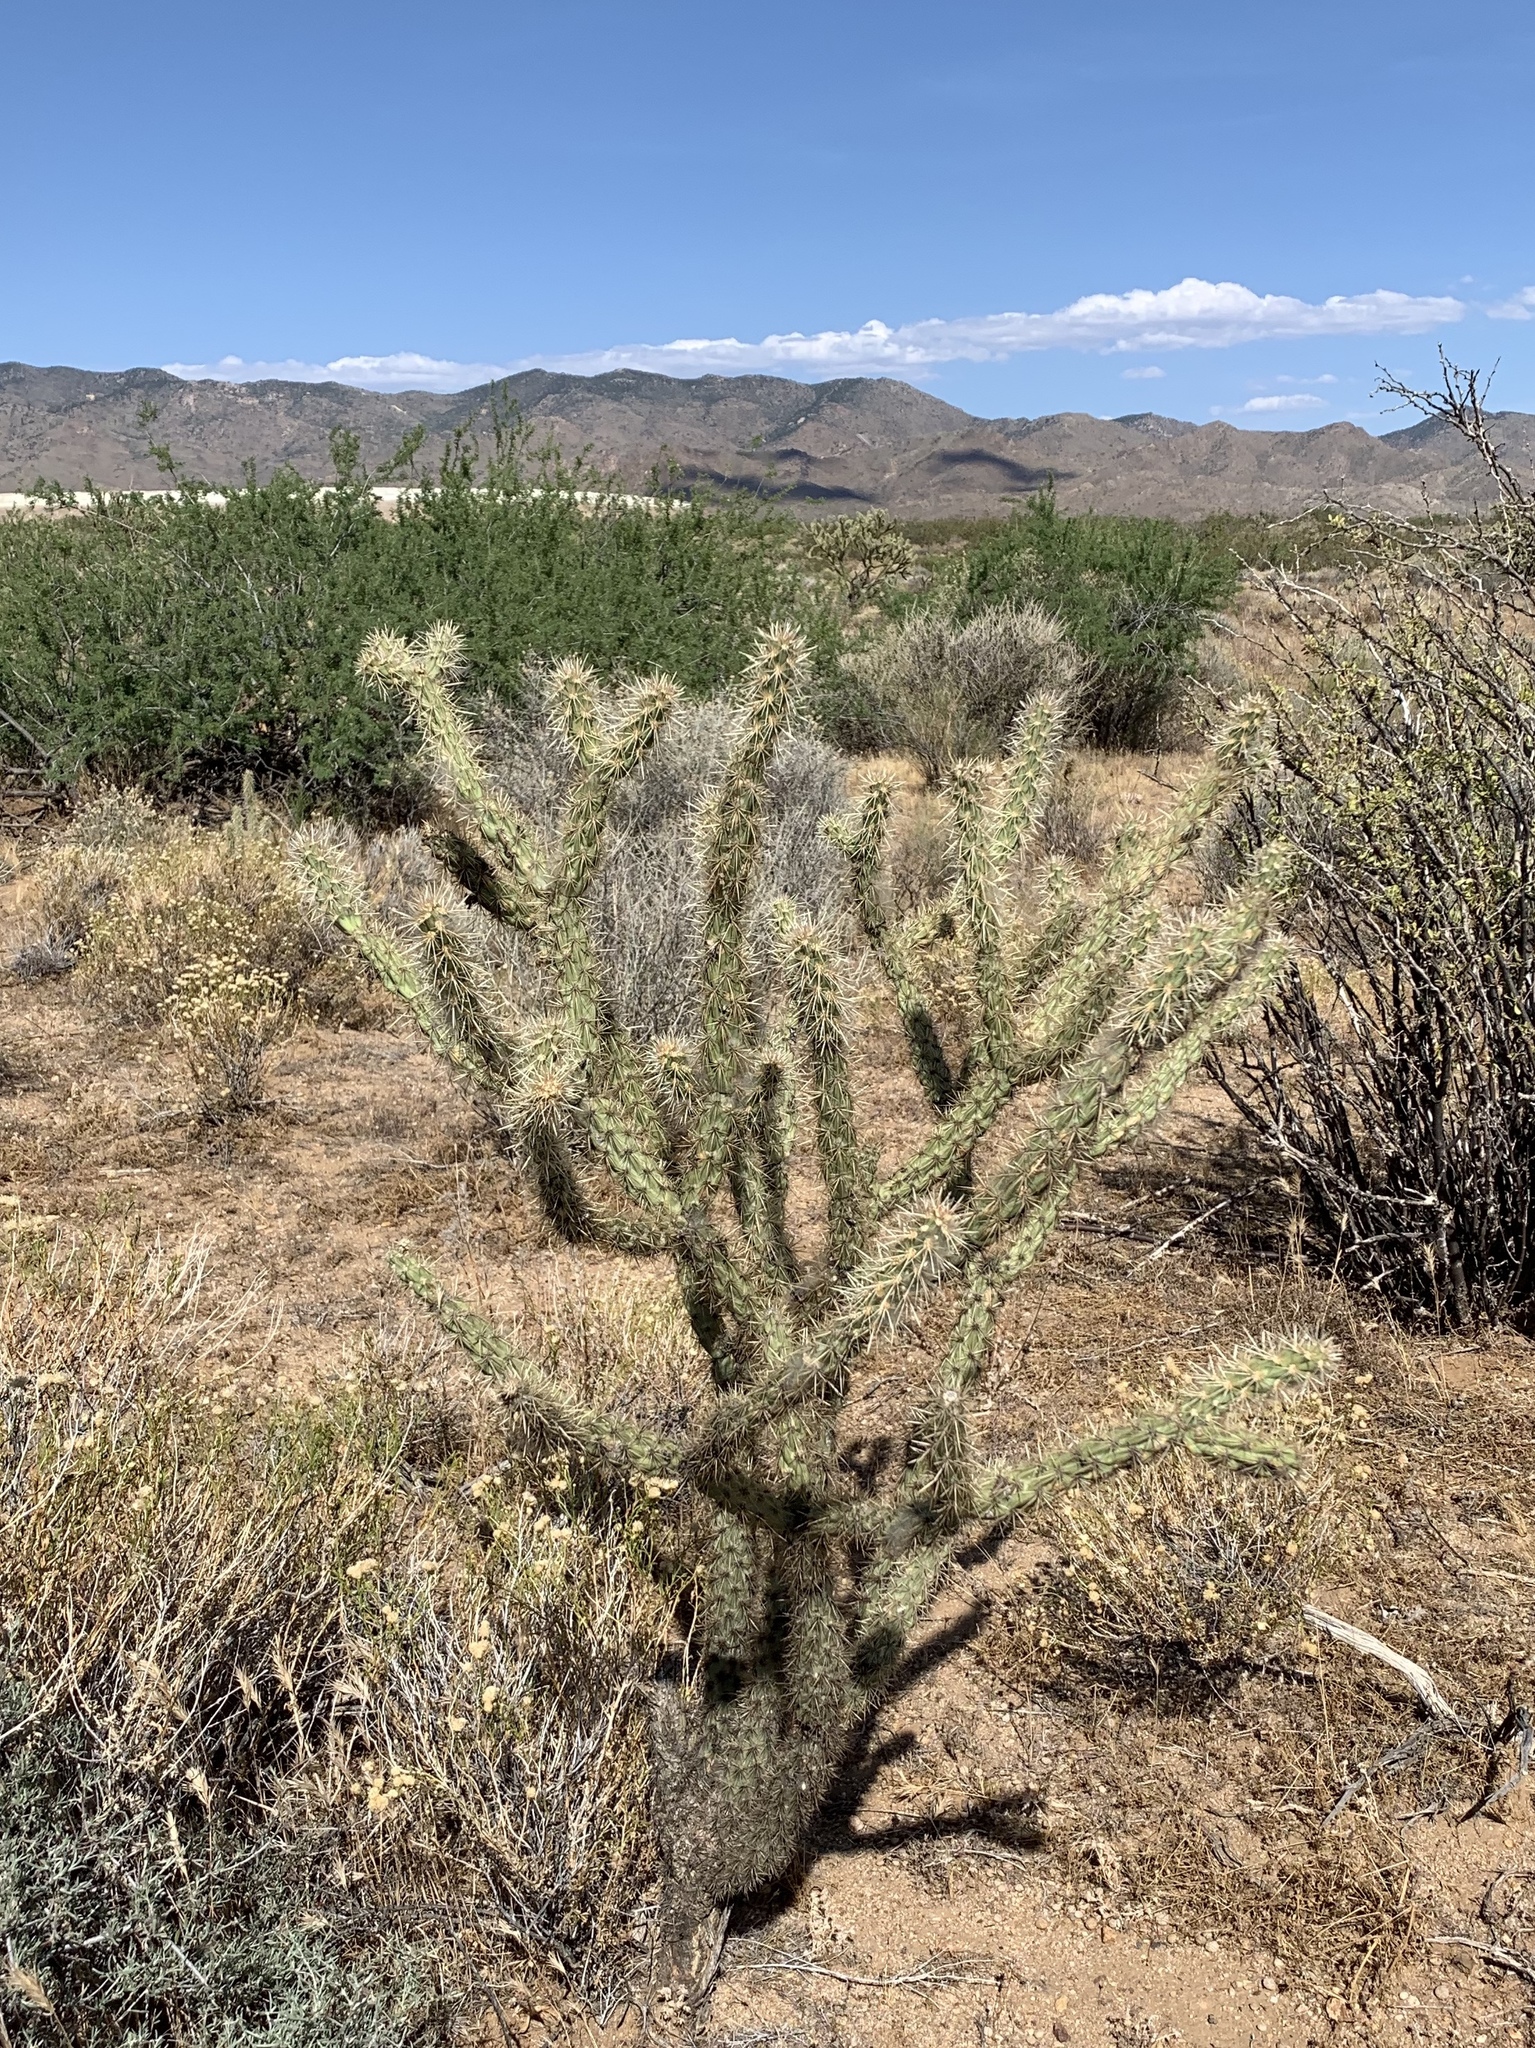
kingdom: Plantae
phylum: Tracheophyta
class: Magnoliopsida
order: Caryophyllales
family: Cactaceae
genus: Cylindropuntia
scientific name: Cylindropuntia acanthocarpa
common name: Buckhorn cholla
